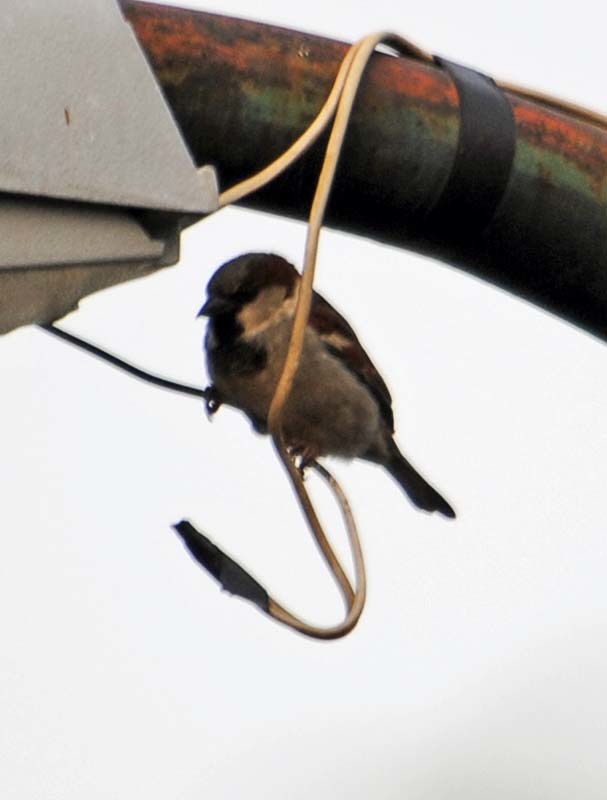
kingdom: Animalia
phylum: Chordata
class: Aves
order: Passeriformes
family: Passeridae
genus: Passer
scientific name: Passer domesticus
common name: House sparrow
